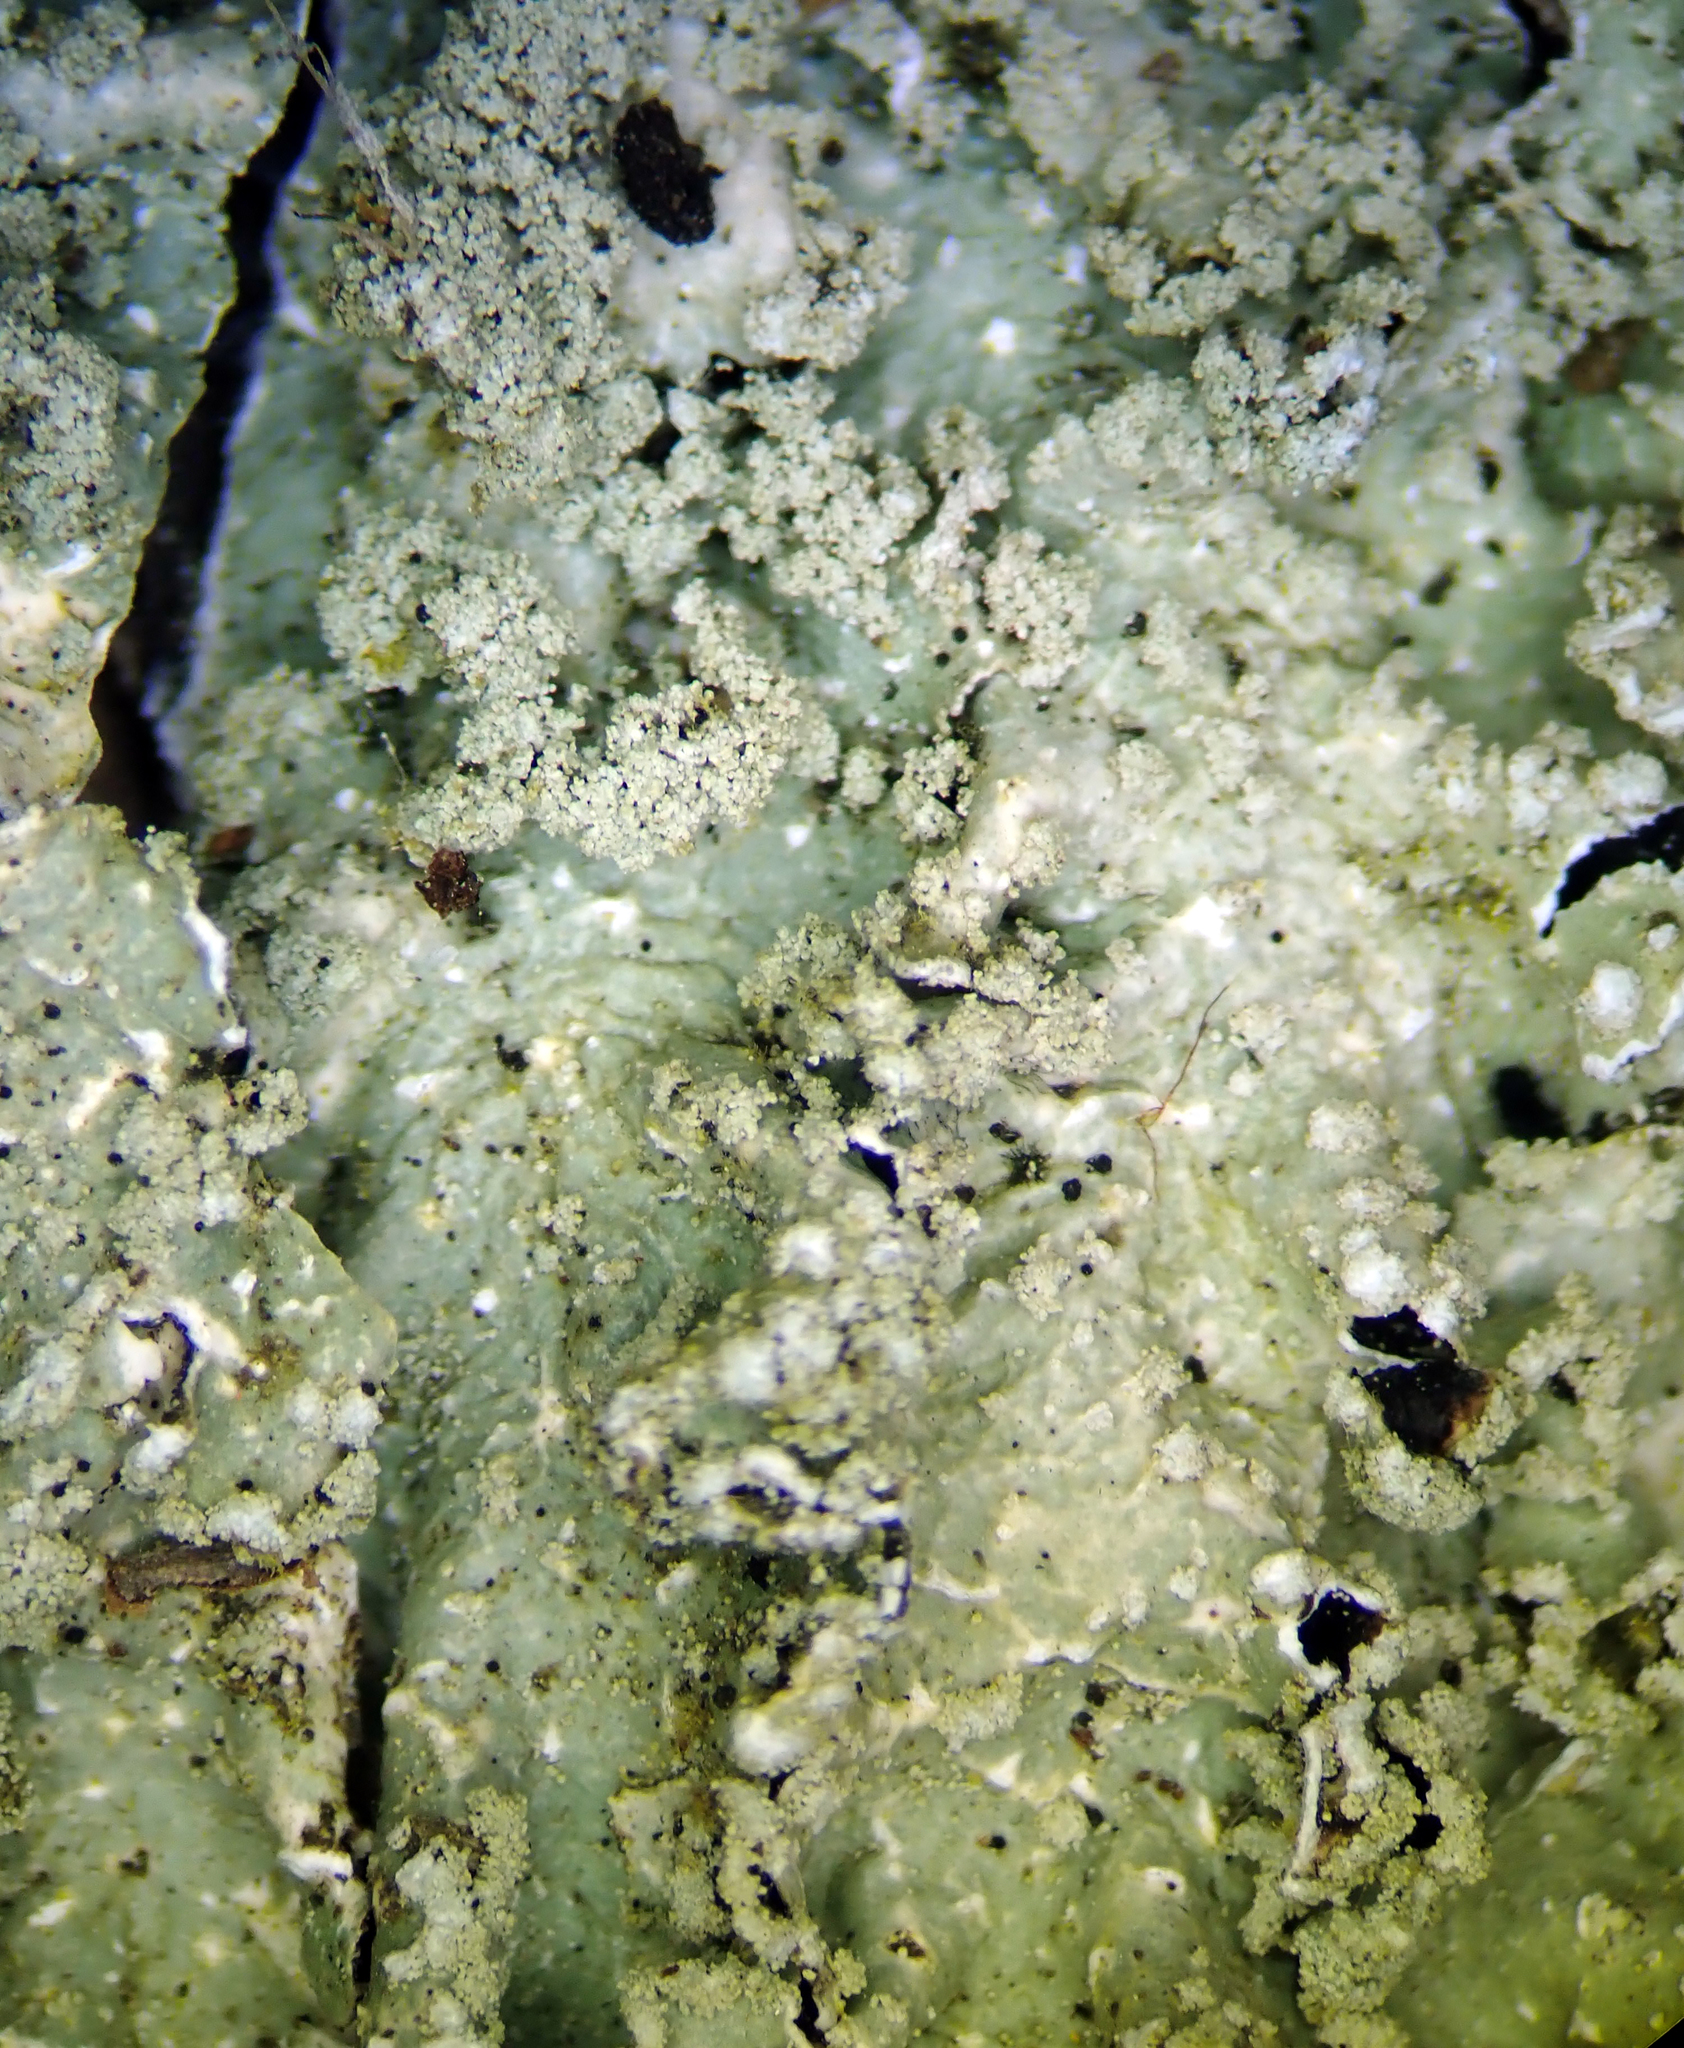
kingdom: Fungi
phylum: Ascomycota
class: Lecanoromycetes
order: Lecanorales
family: Parmeliaceae
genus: Punctelia
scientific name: Punctelia borreri
